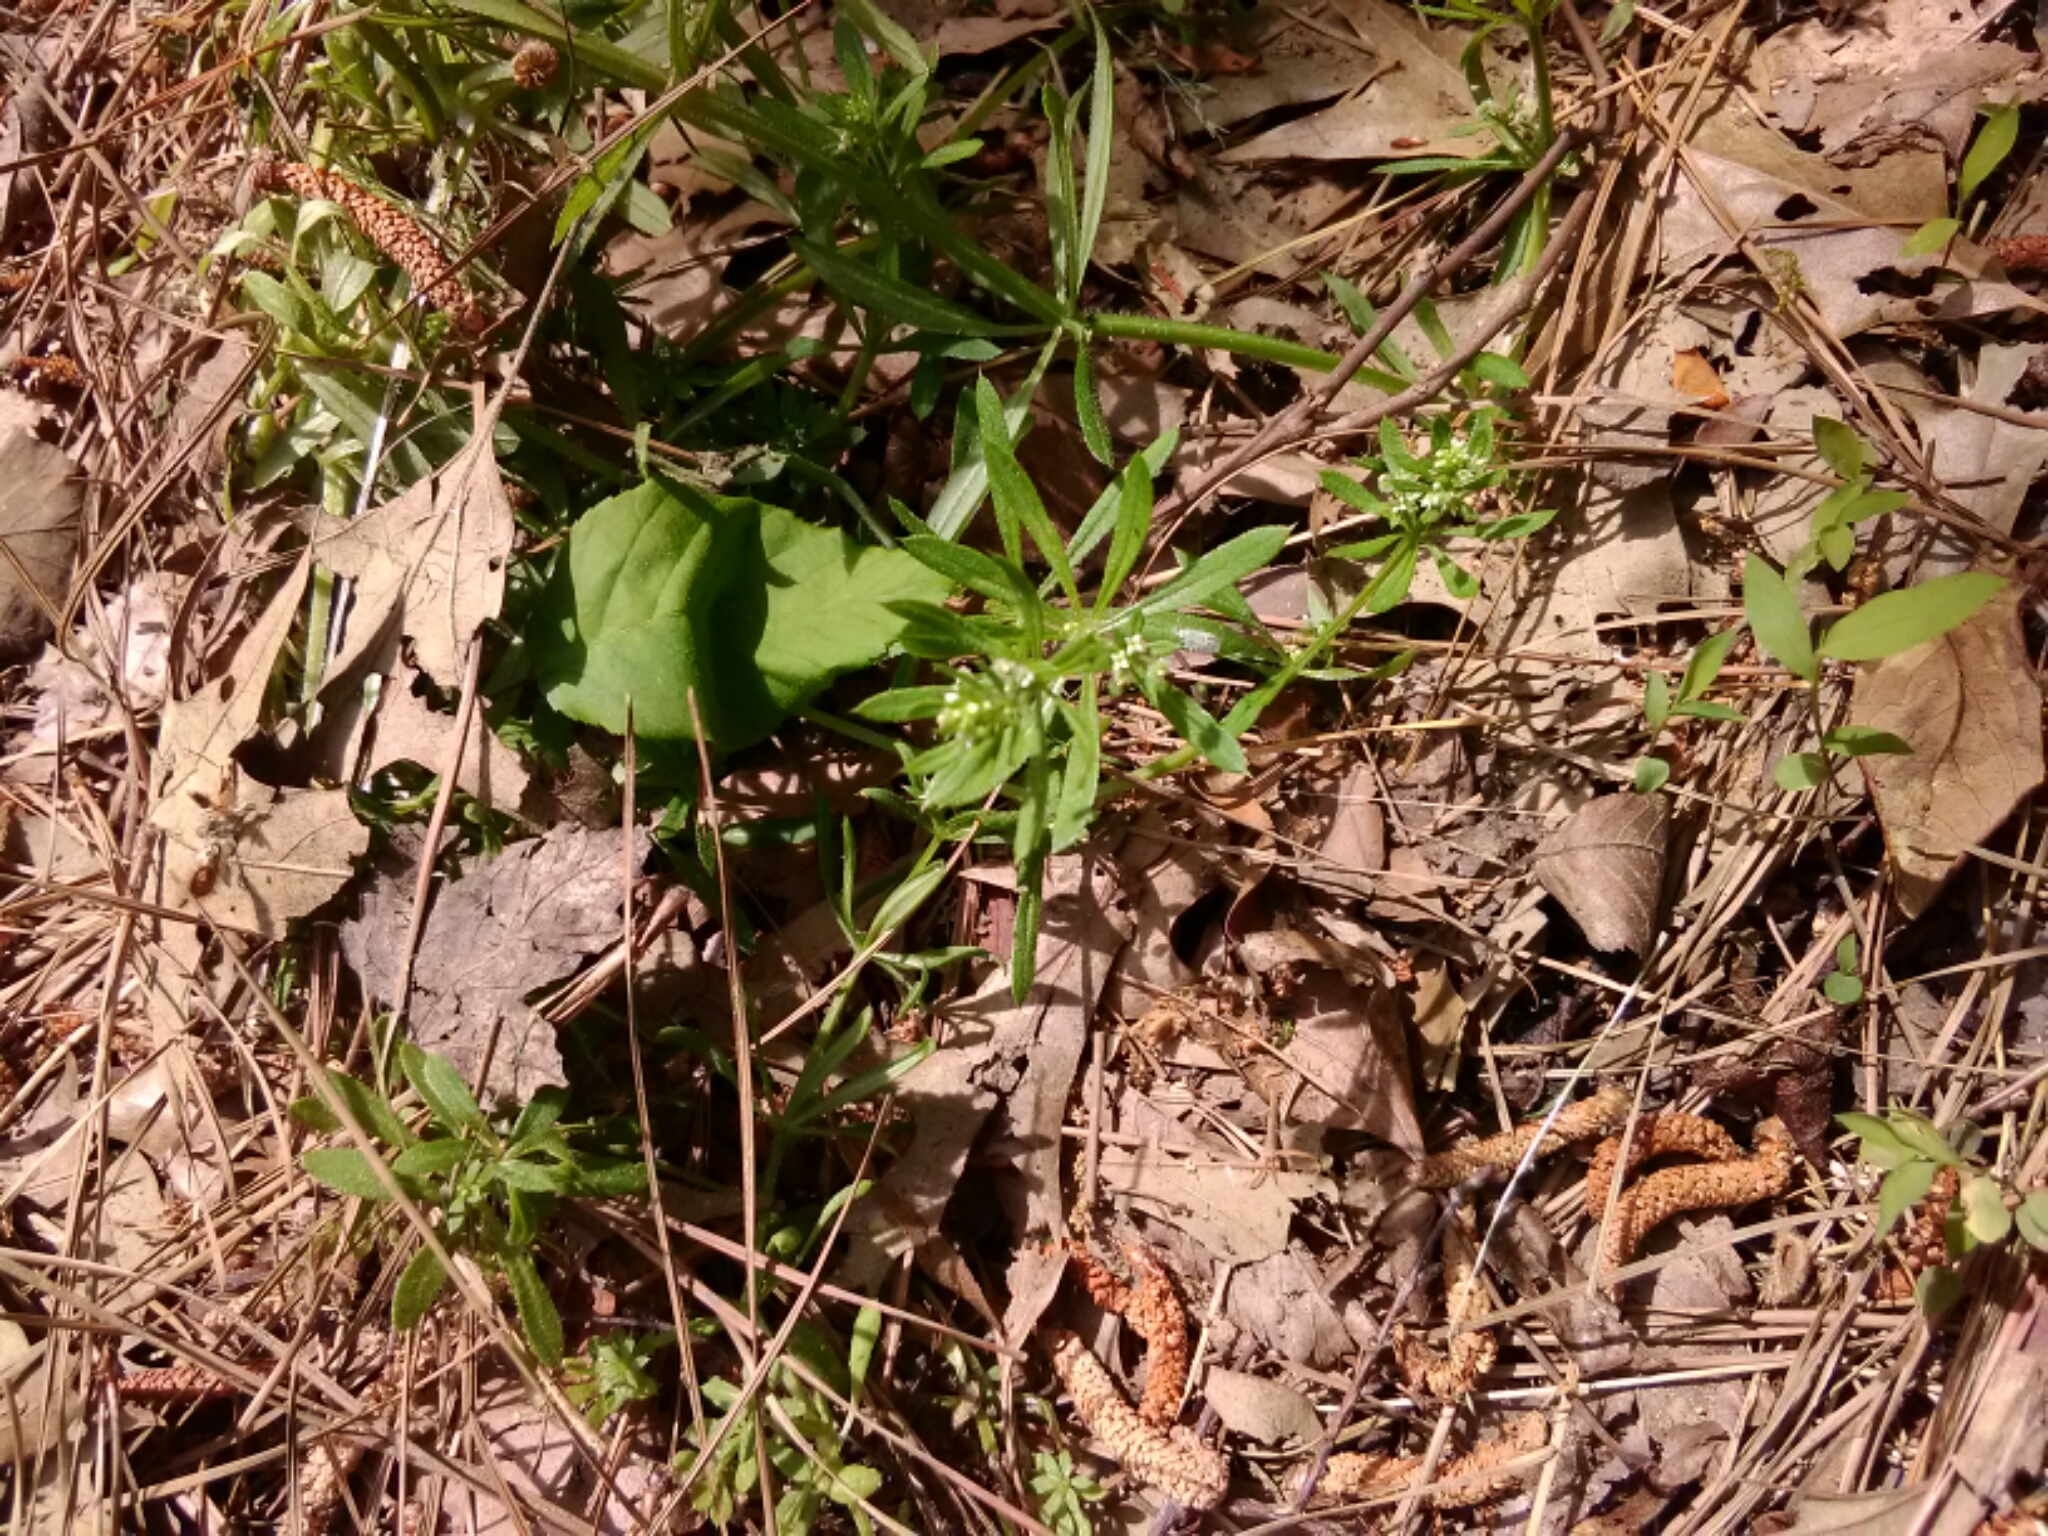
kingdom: Plantae
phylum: Tracheophyta
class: Magnoliopsida
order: Gentianales
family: Rubiaceae
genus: Galium
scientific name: Galium aparine
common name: Cleavers
